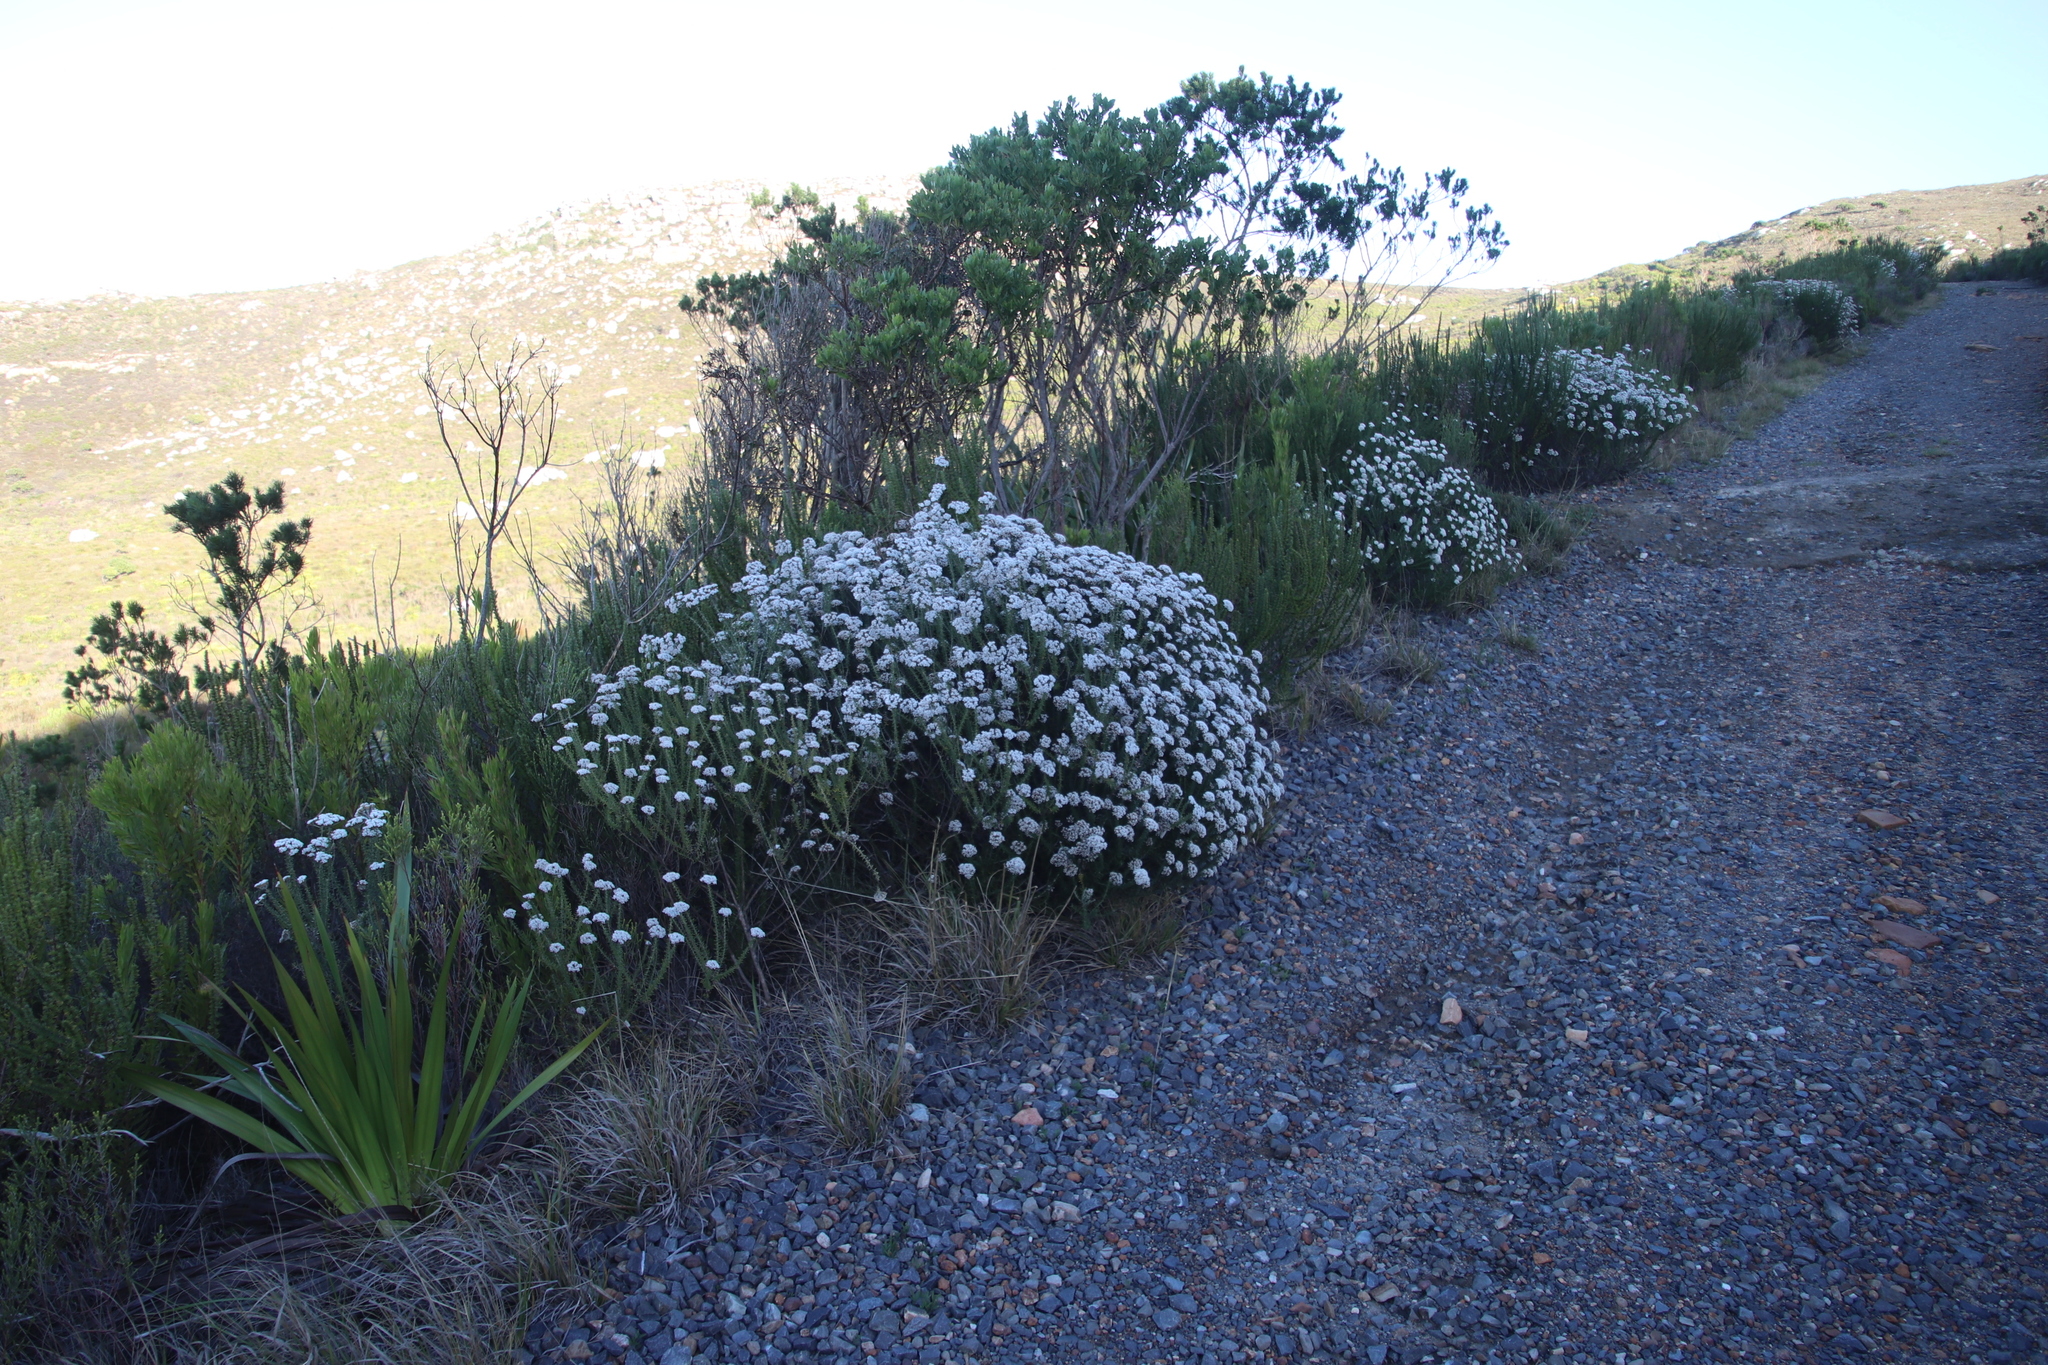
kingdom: Plantae
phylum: Tracheophyta
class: Magnoliopsida
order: Asterales
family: Asteraceae
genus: Metalasia
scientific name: Metalasia densa
